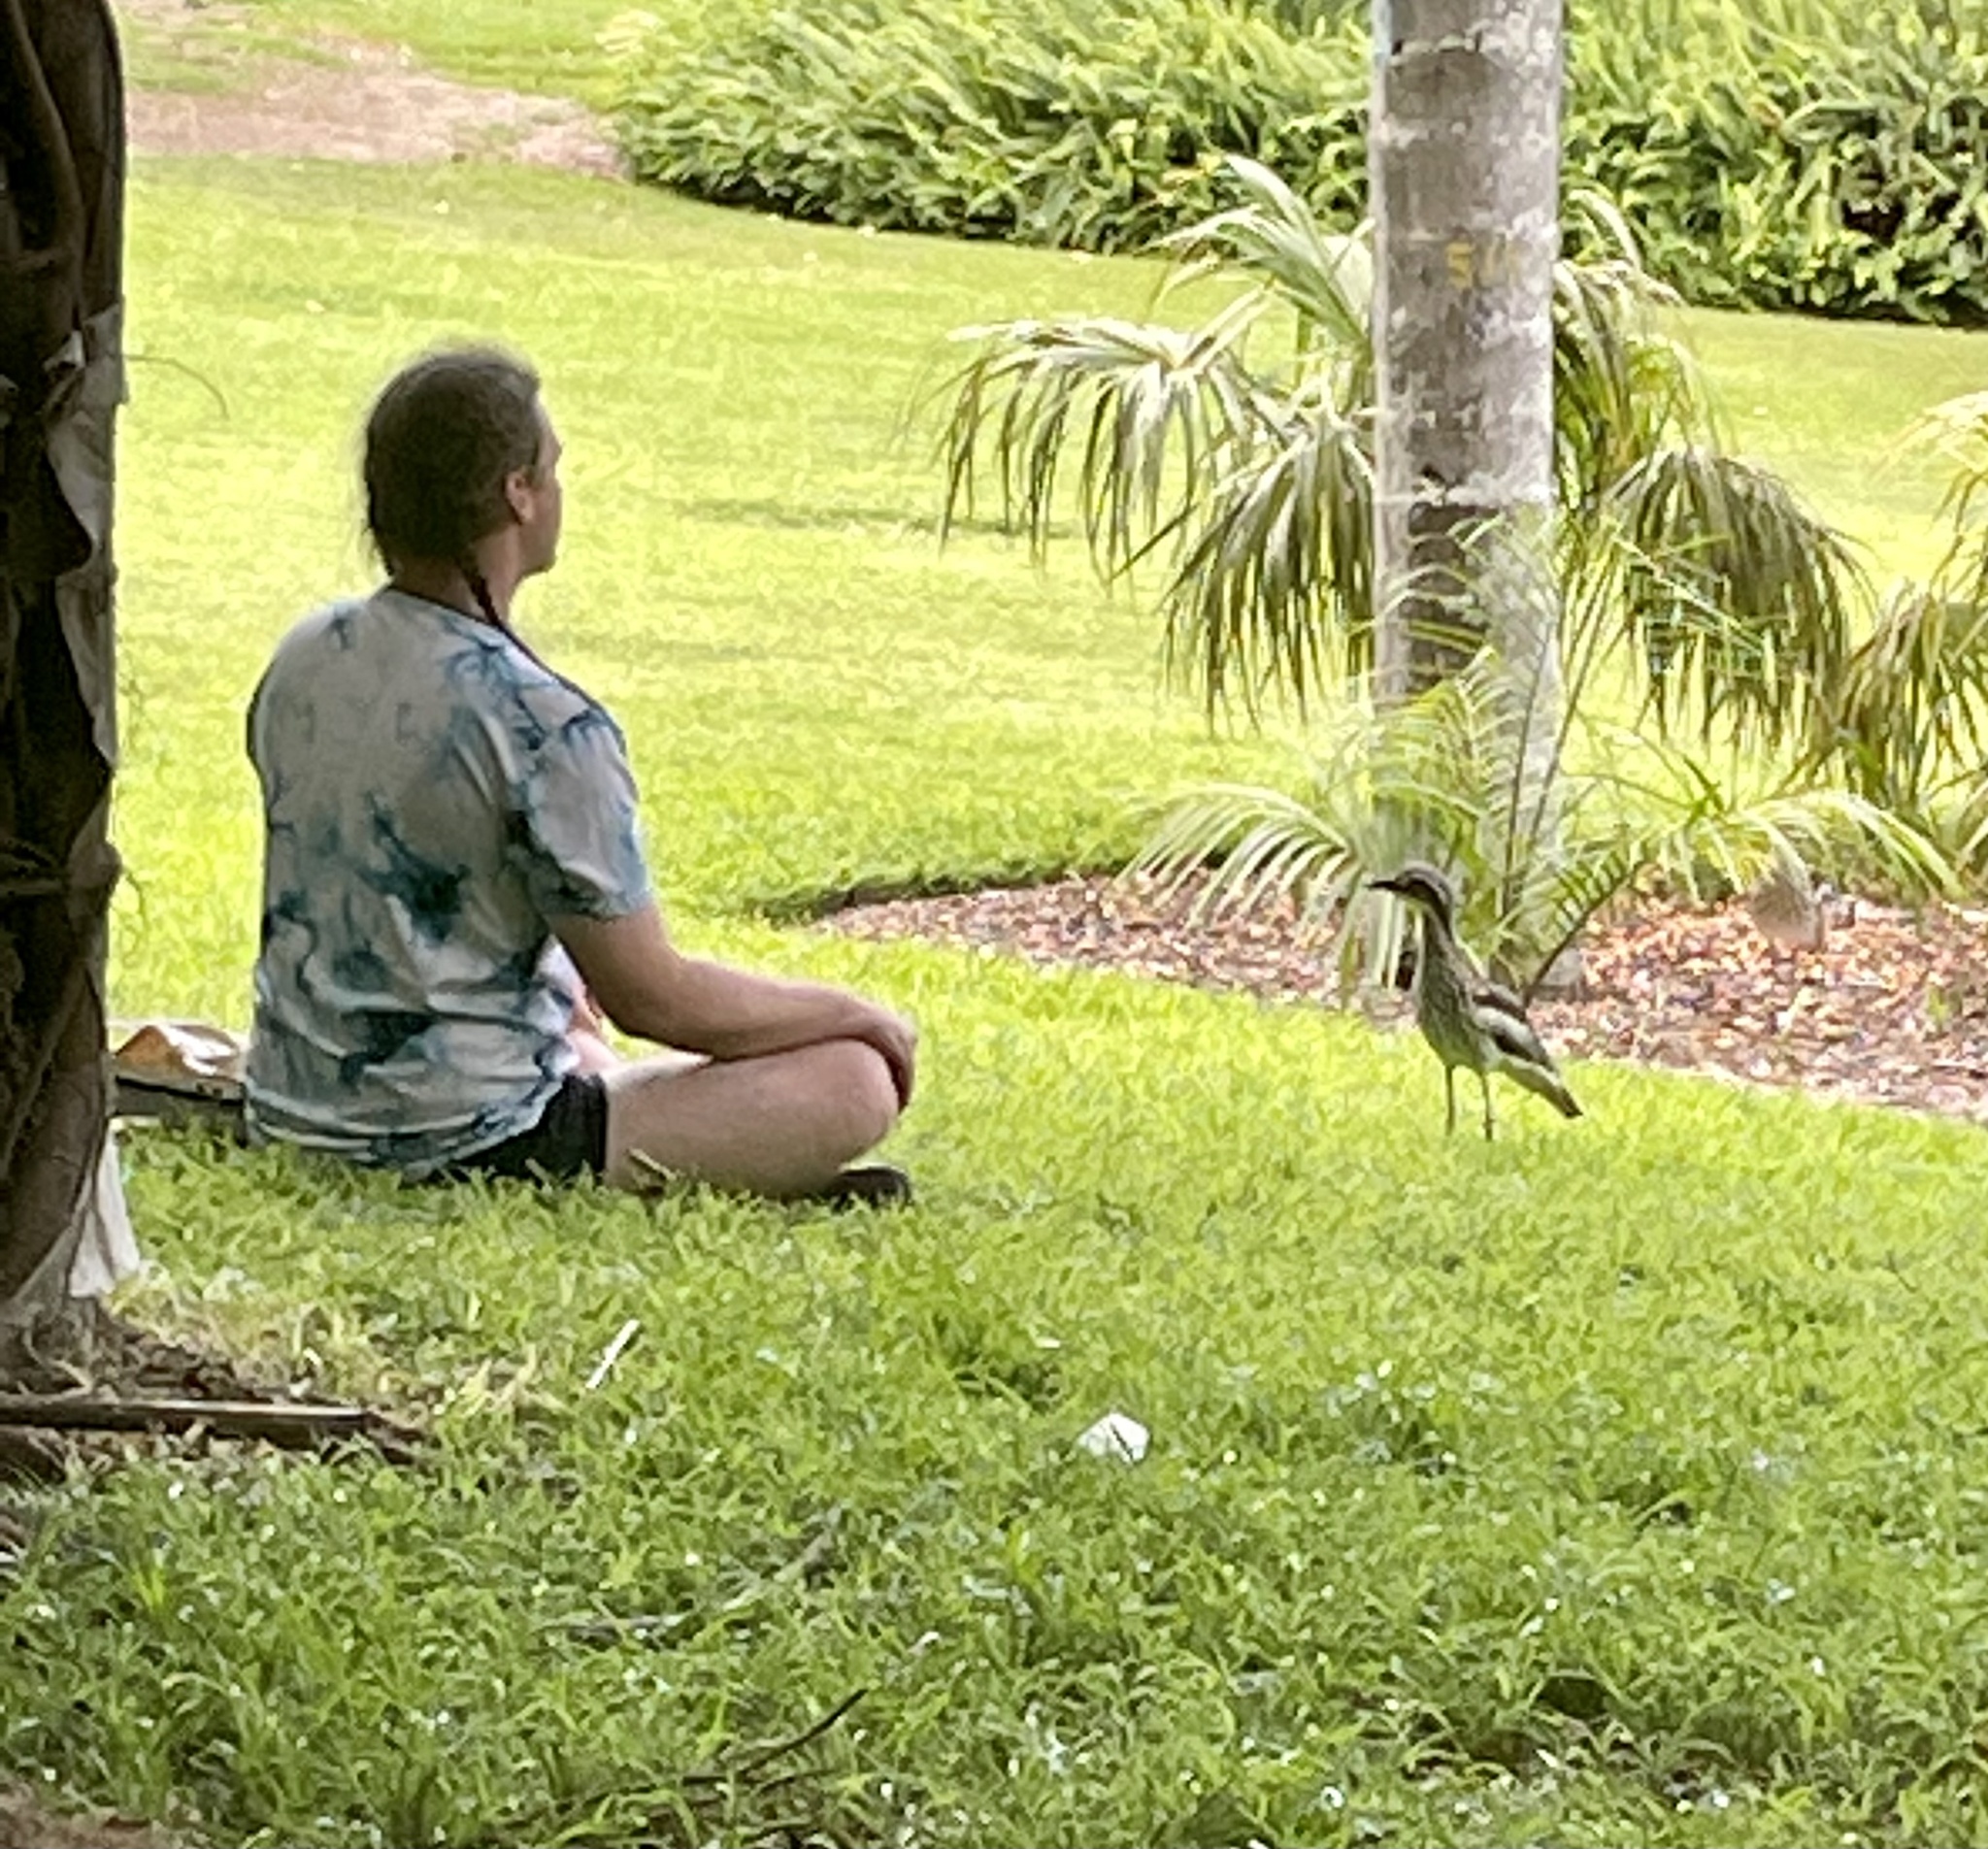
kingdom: Animalia
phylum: Chordata
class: Aves
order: Charadriiformes
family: Burhinidae
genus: Burhinus
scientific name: Burhinus grallarius
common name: Bush stone-curlew
